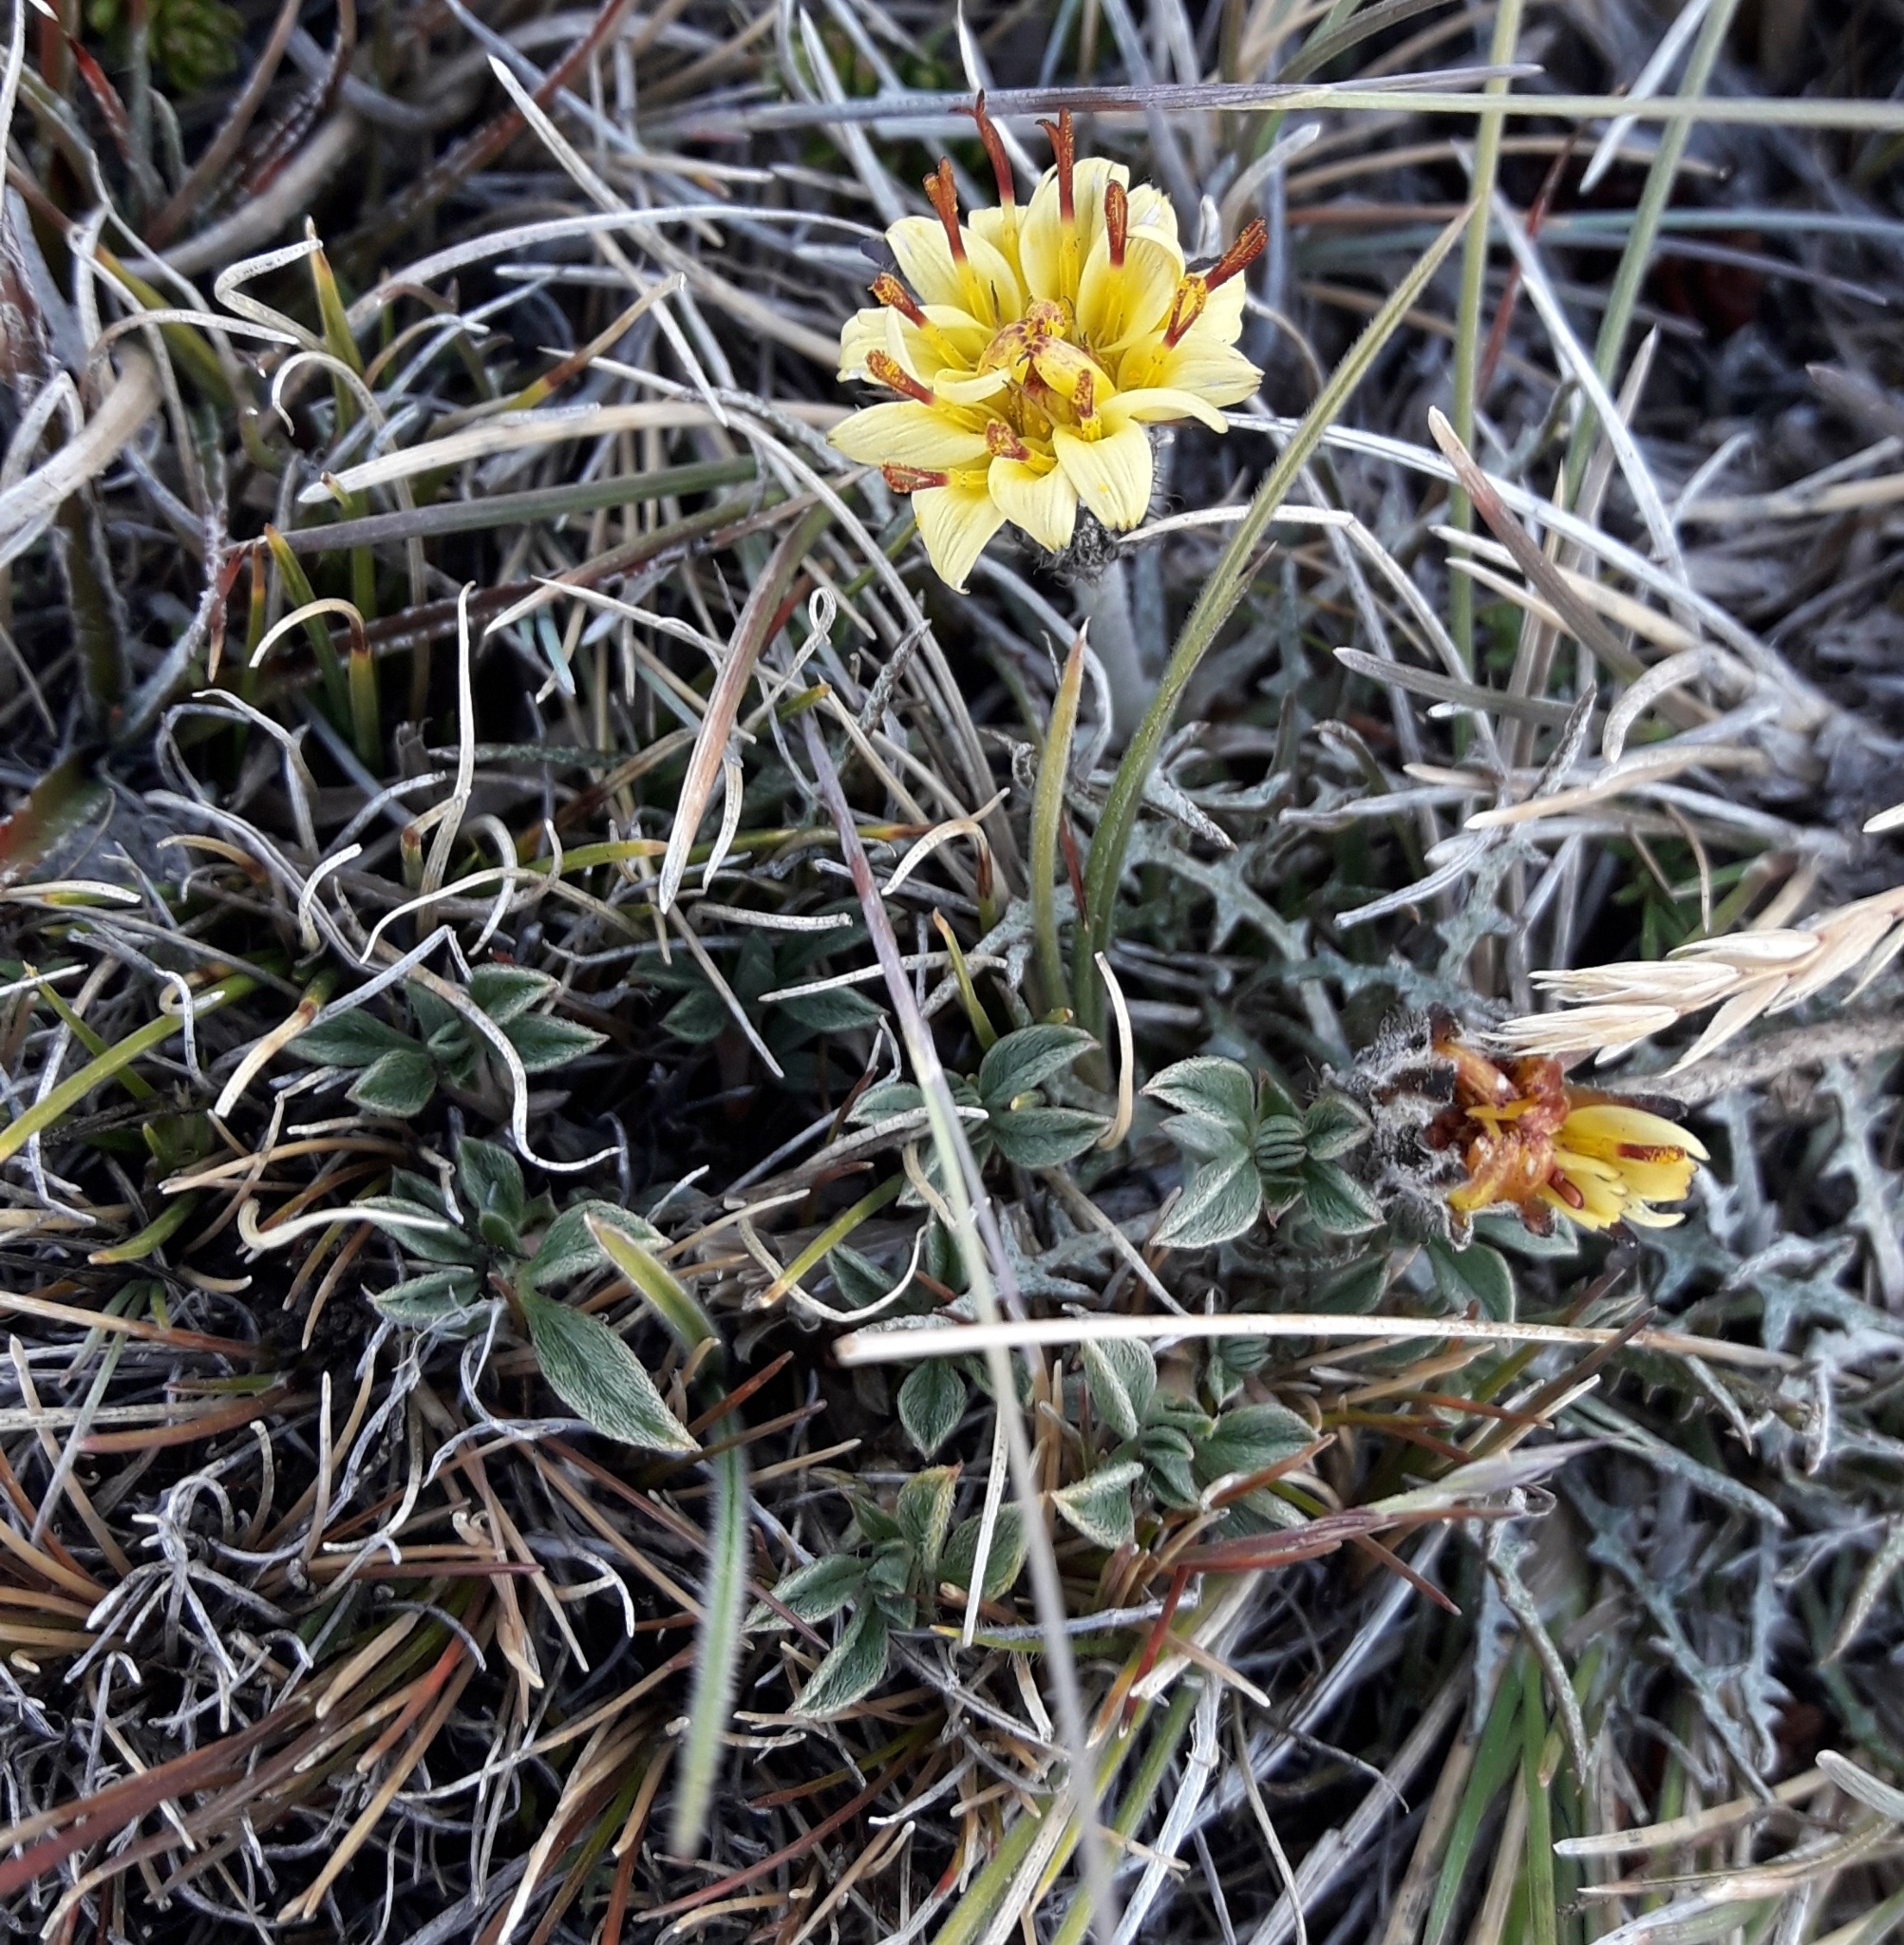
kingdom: Plantae
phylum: Tracheophyta
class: Magnoliopsida
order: Asterales
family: Asteraceae
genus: Hypochaeris
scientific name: Hypochaeris incana
